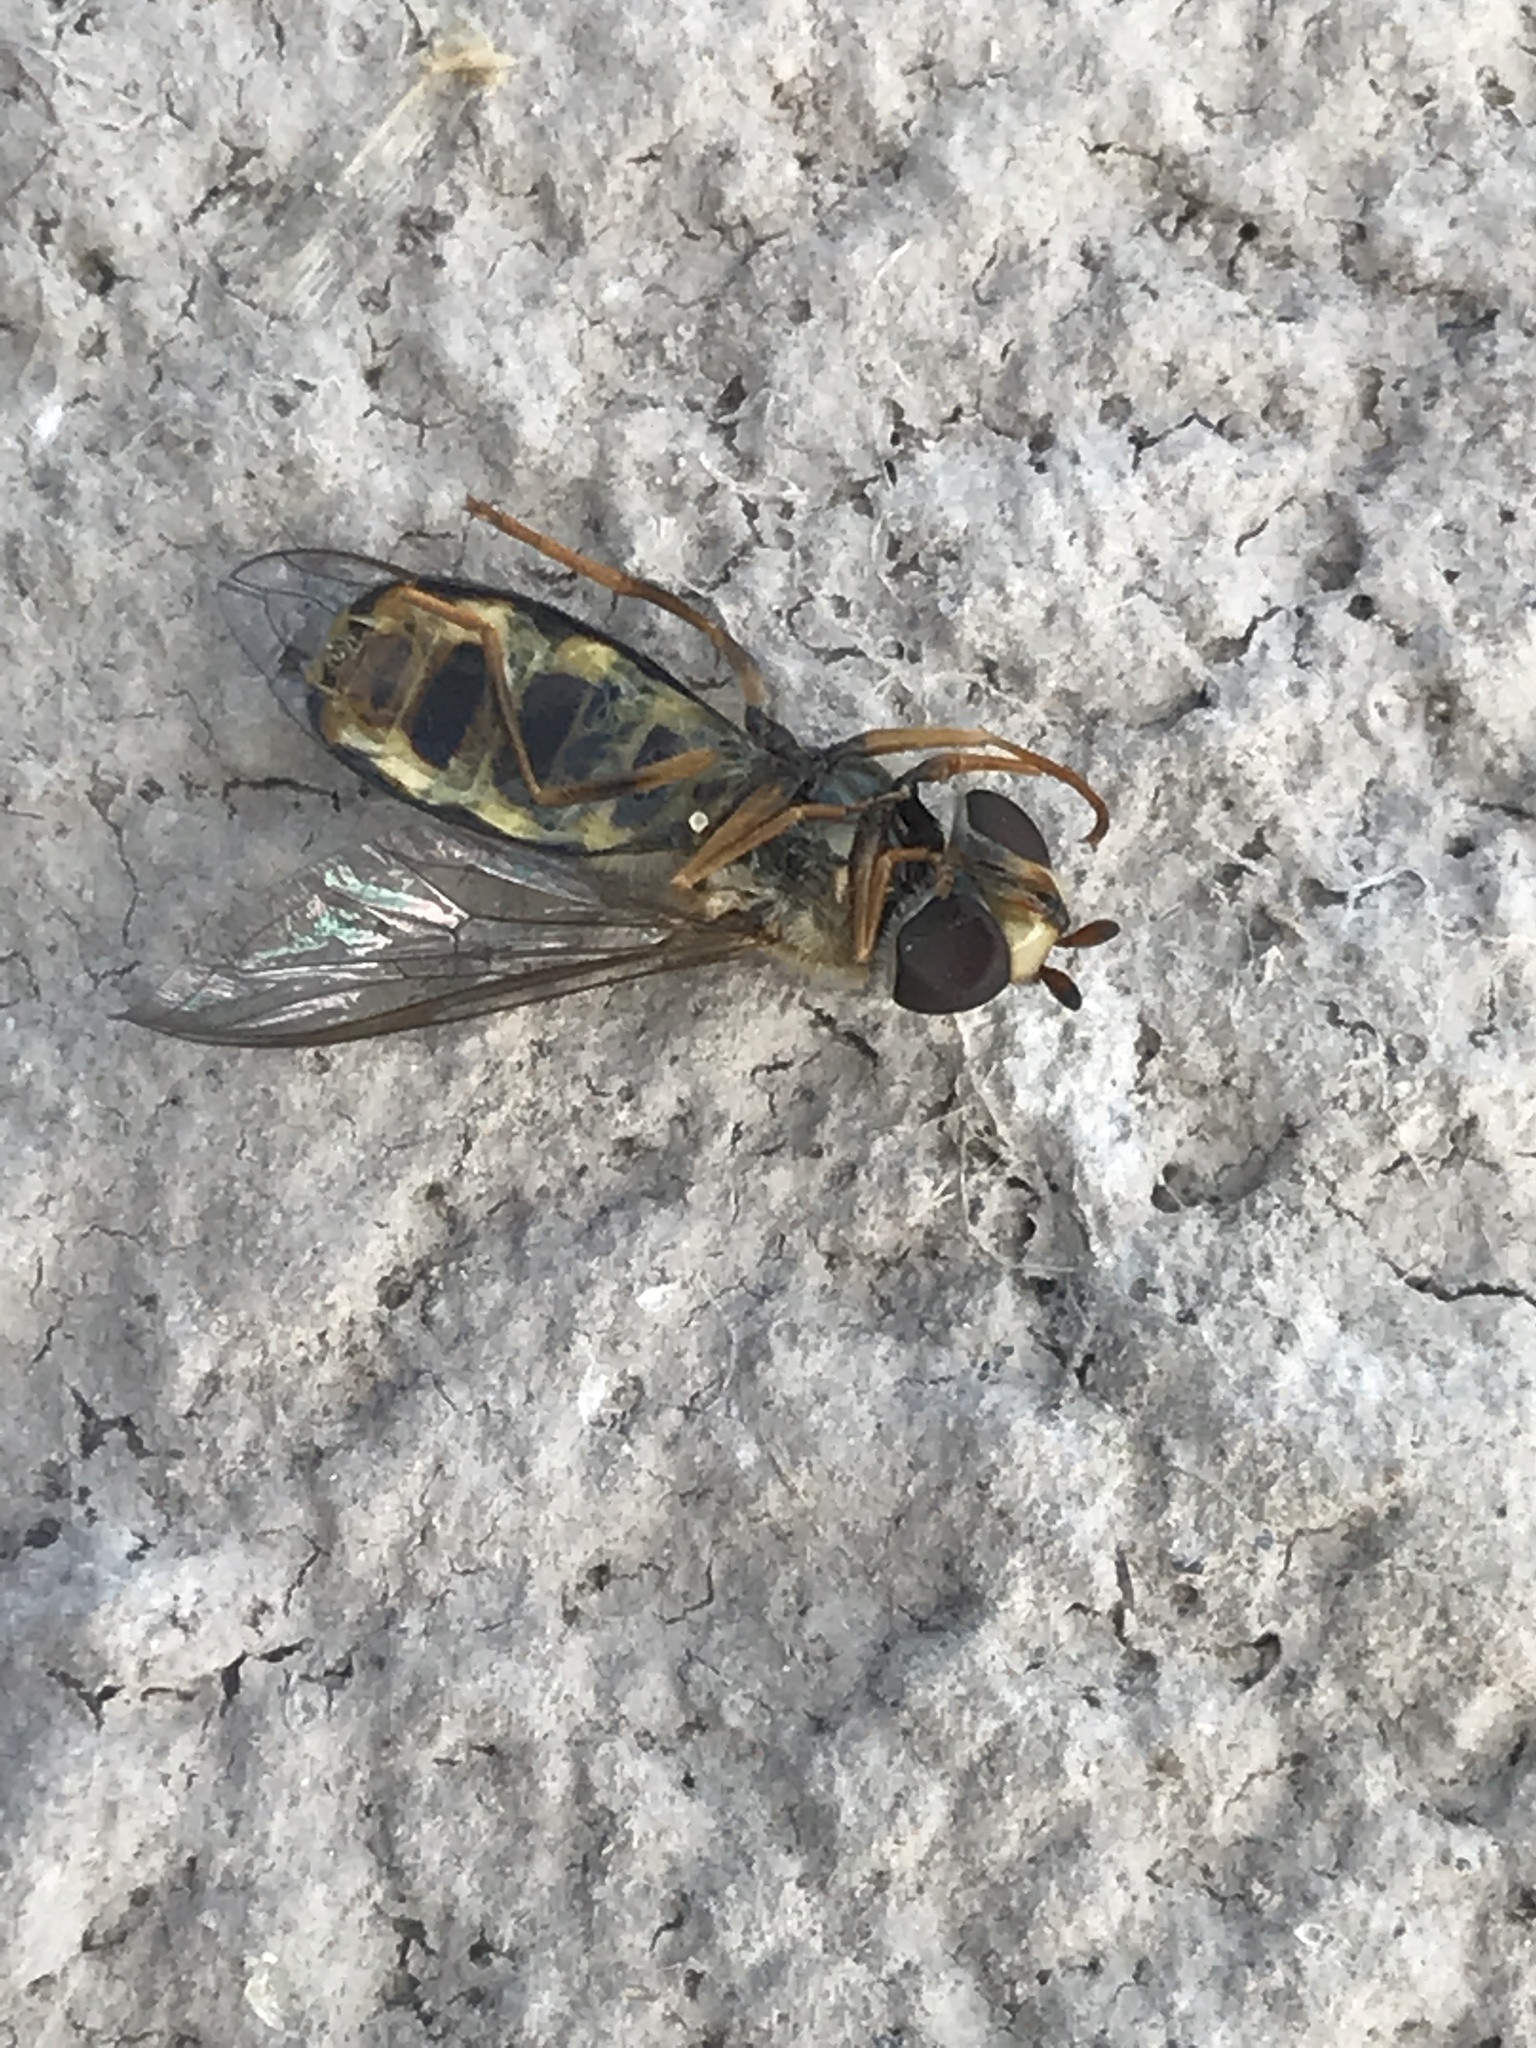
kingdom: Animalia
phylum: Arthropoda
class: Insecta
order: Diptera
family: Syrphidae
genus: Eupeodes
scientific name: Eupeodes
